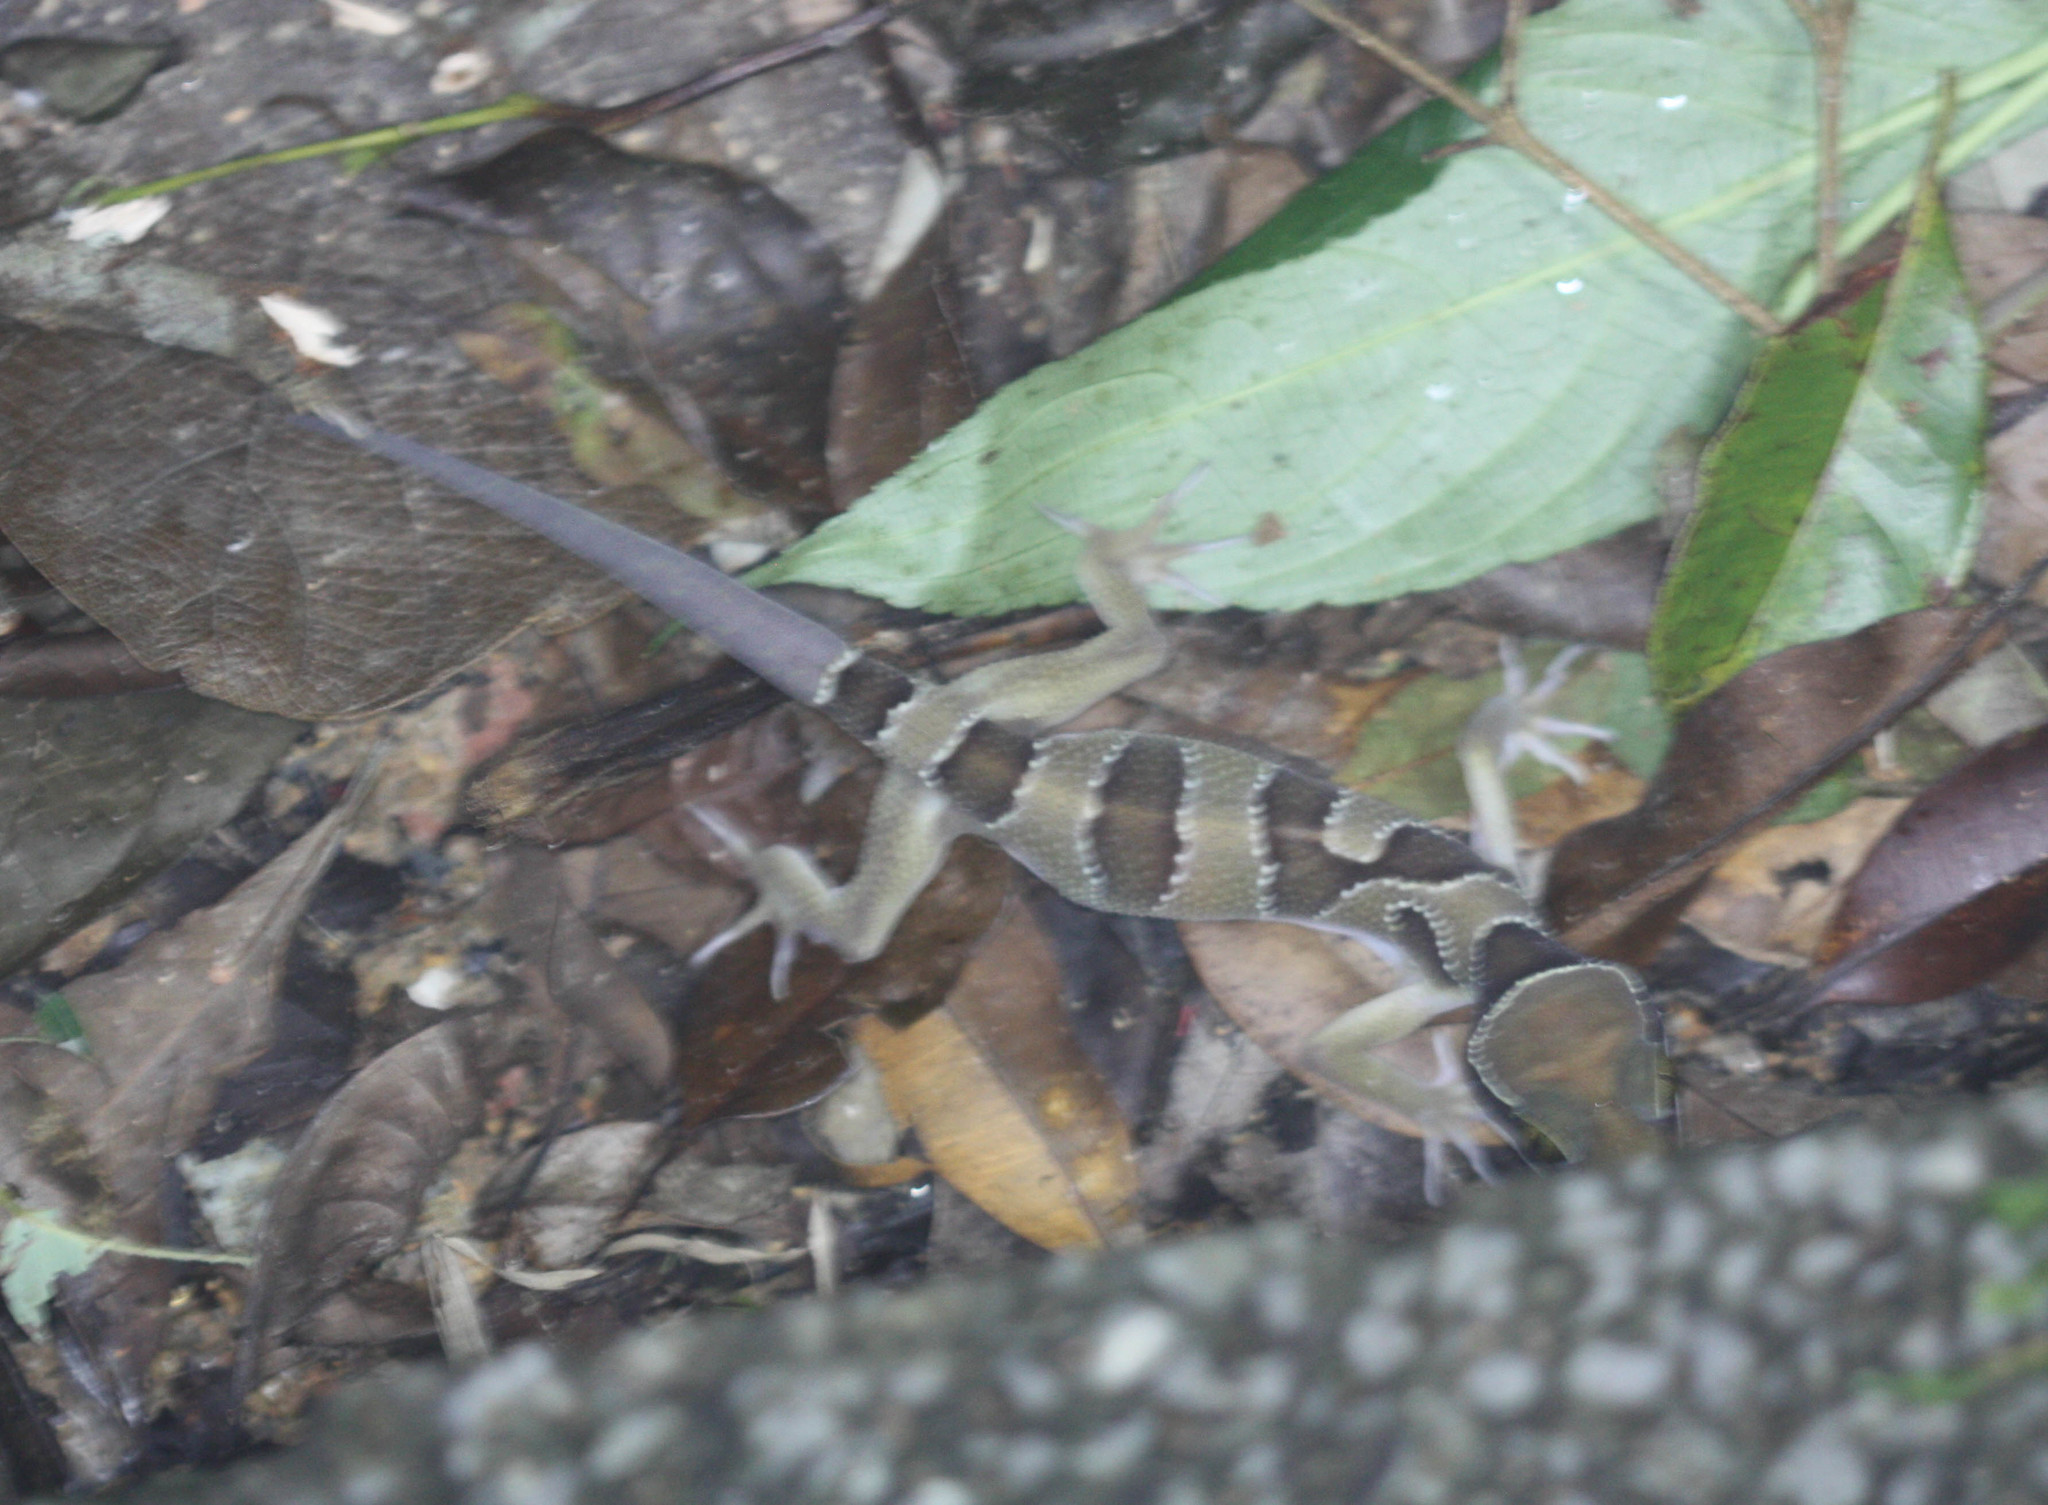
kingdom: Animalia
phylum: Chordata
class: Squamata
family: Gekkonidae
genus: Cyrtodactylus
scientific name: Cyrtodactylus pulchellus
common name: Banded bent-toed gecko
